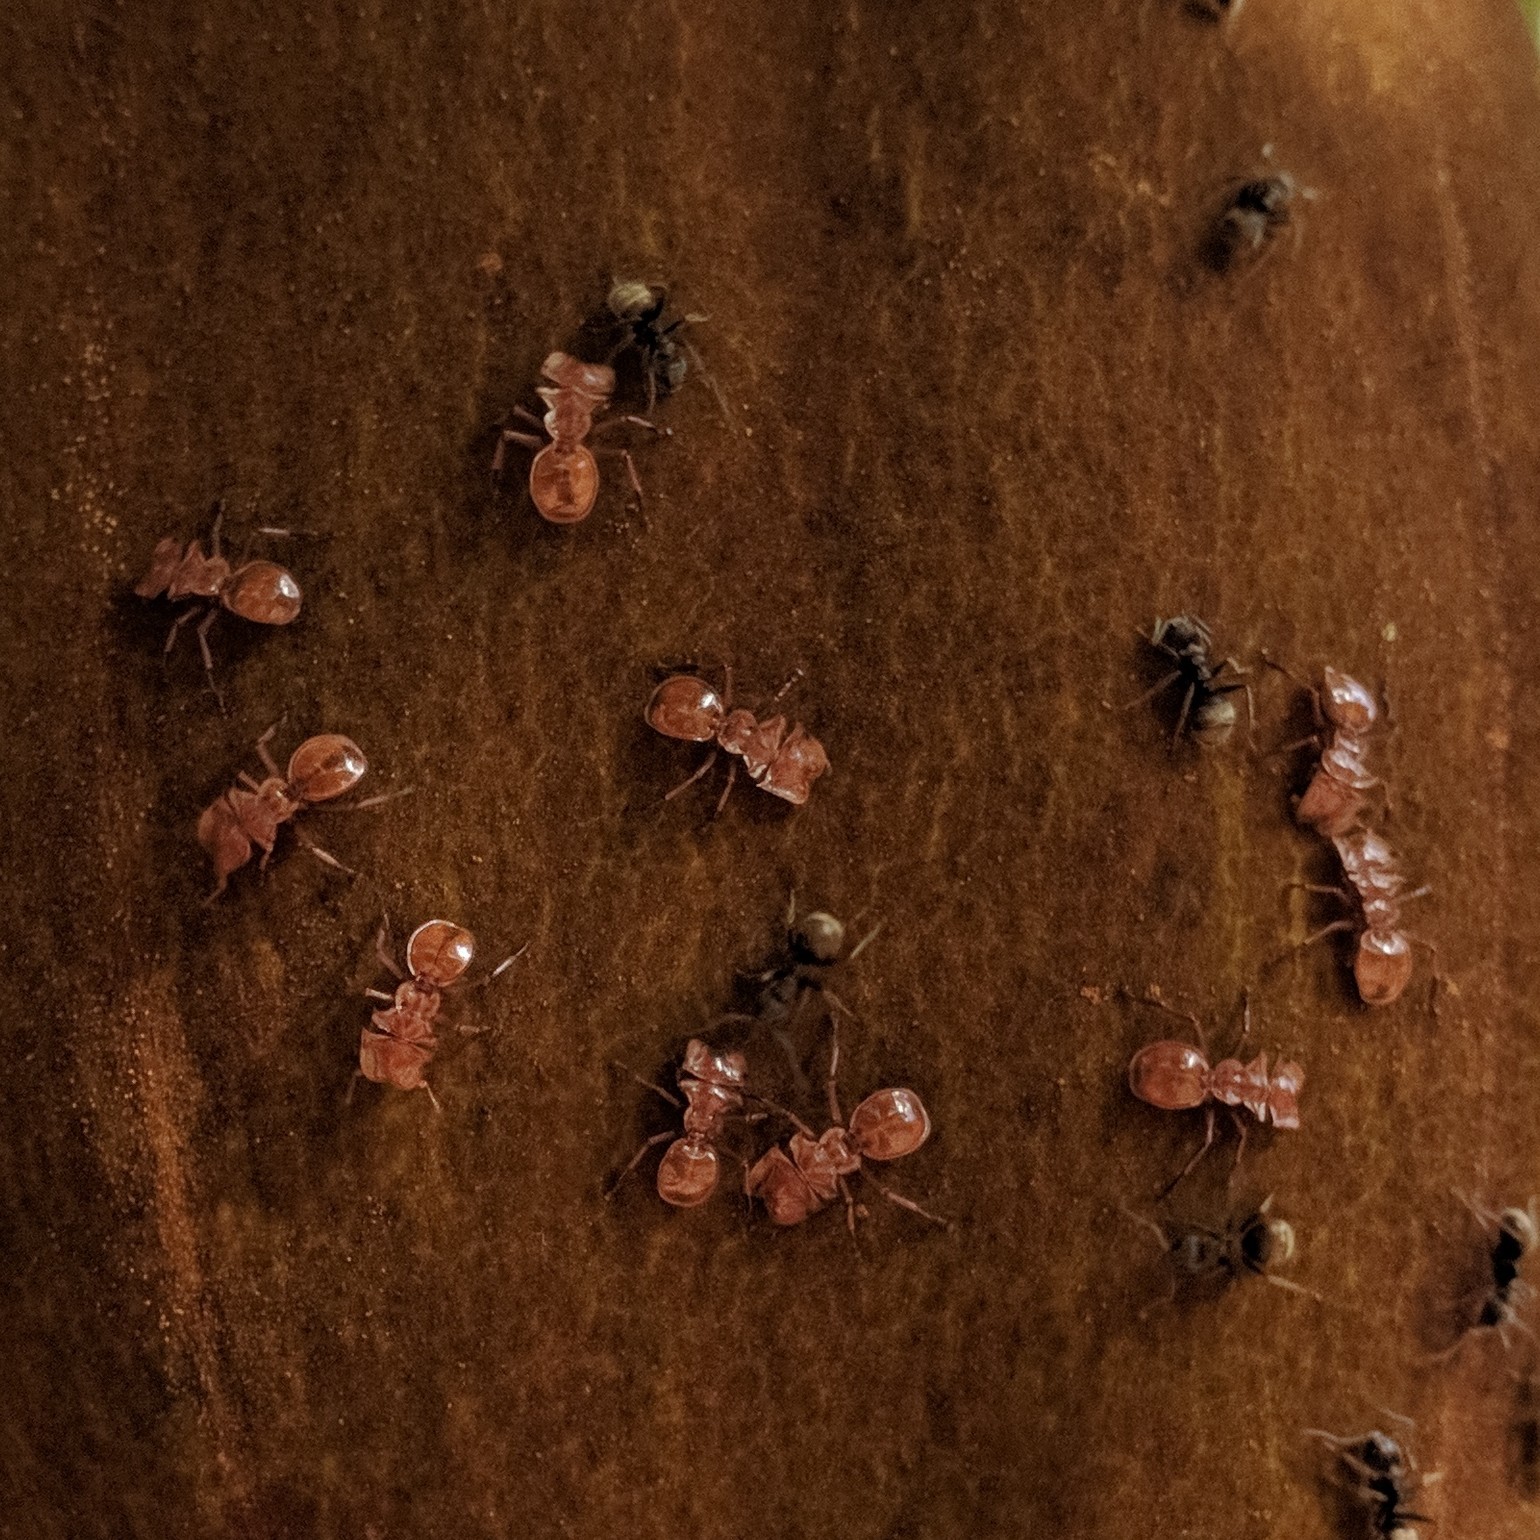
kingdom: Animalia
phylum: Arthropoda
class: Insecta
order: Hymenoptera
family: Formicidae
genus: Cephalotes
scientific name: Cephalotes clypeatus
